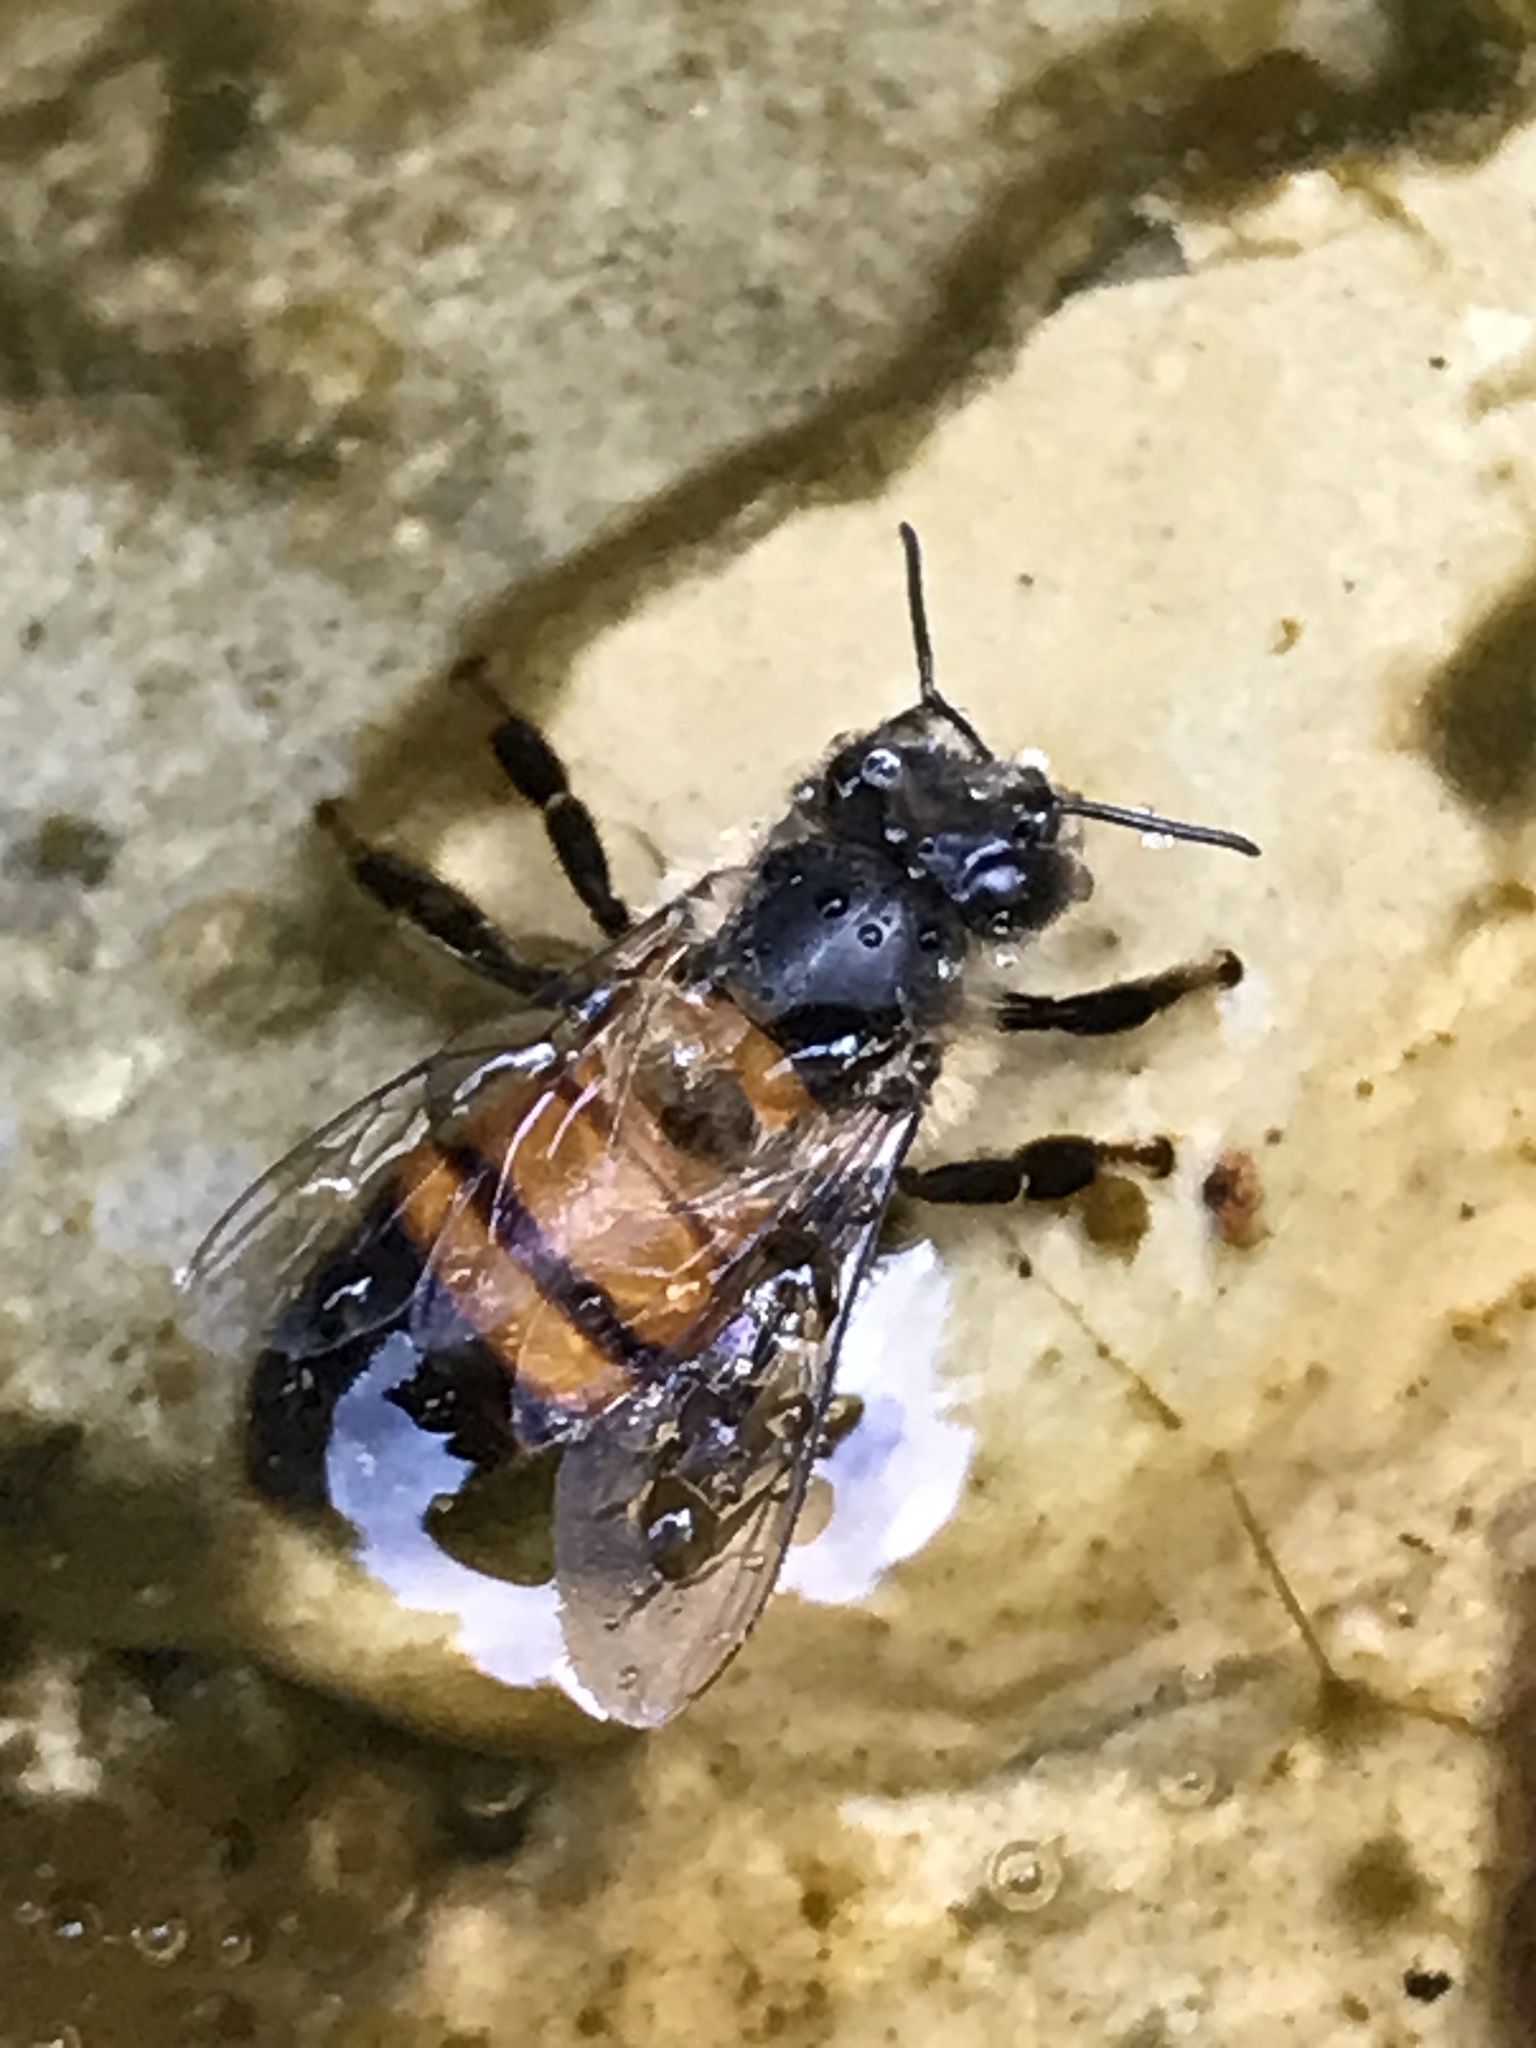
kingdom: Animalia
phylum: Arthropoda
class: Insecta
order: Hymenoptera
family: Apidae
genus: Apis
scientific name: Apis mellifera
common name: Honey bee
